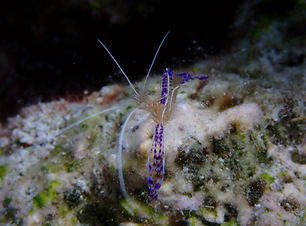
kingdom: Animalia
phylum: Arthropoda
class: Malacostraca
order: Decapoda
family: Palaemonidae
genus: Ancylomenes
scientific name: Ancylomenes pedersoni
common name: Pederson's cleaning shrimp
